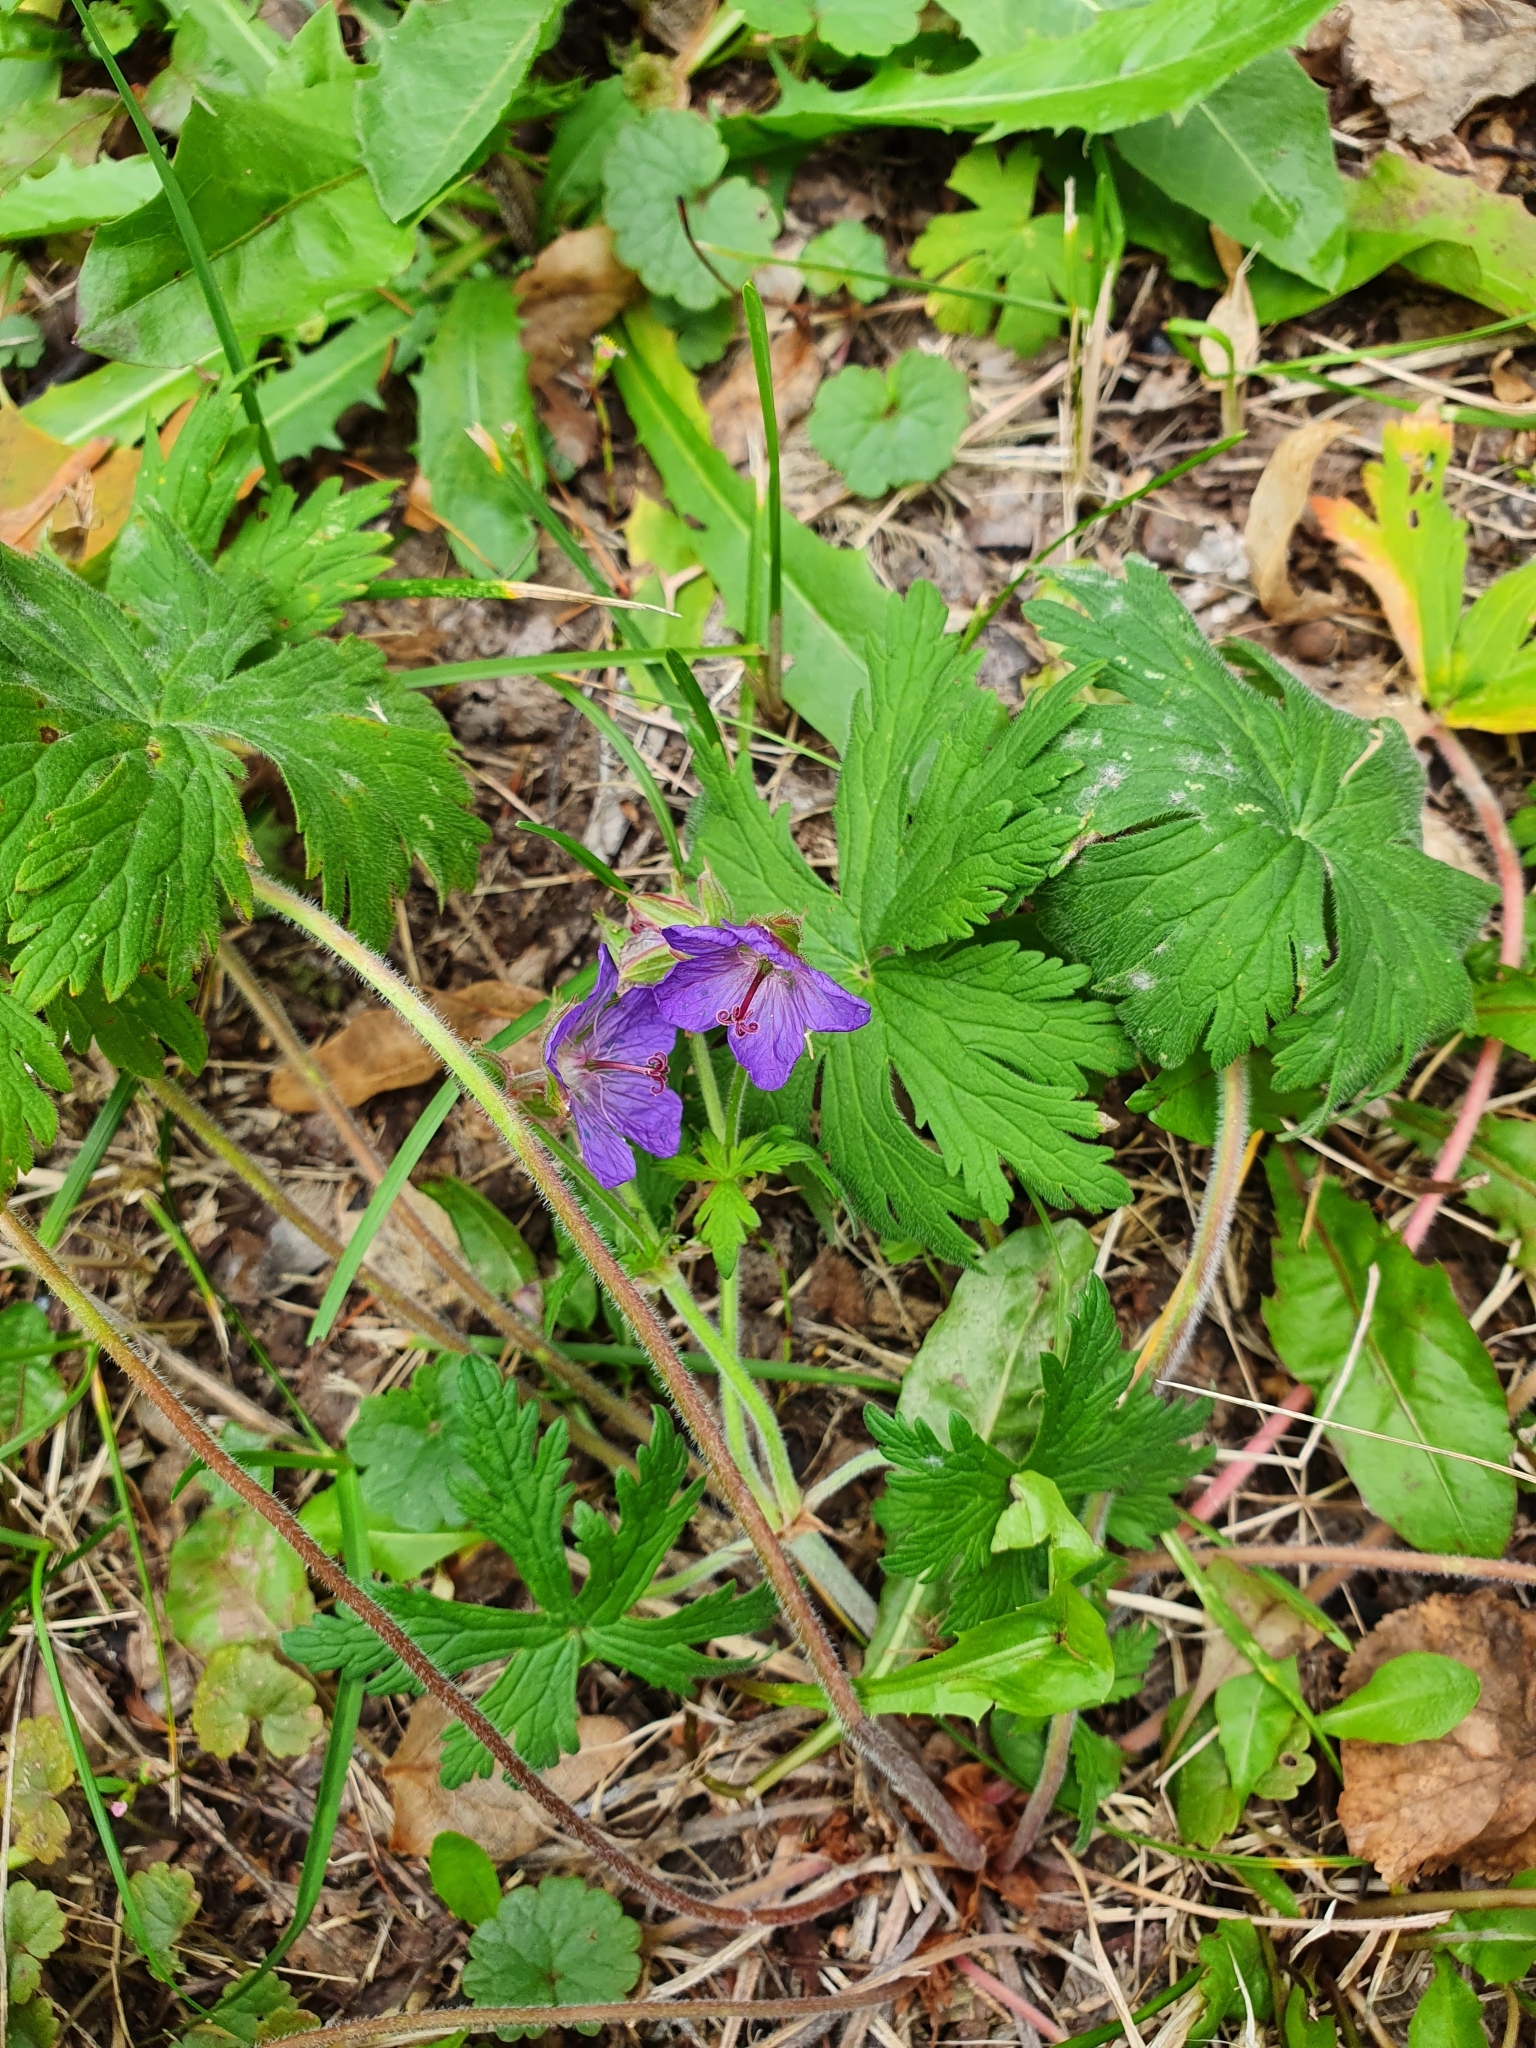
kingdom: Plantae
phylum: Tracheophyta
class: Magnoliopsida
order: Geraniales
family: Geraniaceae
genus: Geranium
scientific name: Geranium pratense
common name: Meadow crane's-bill
